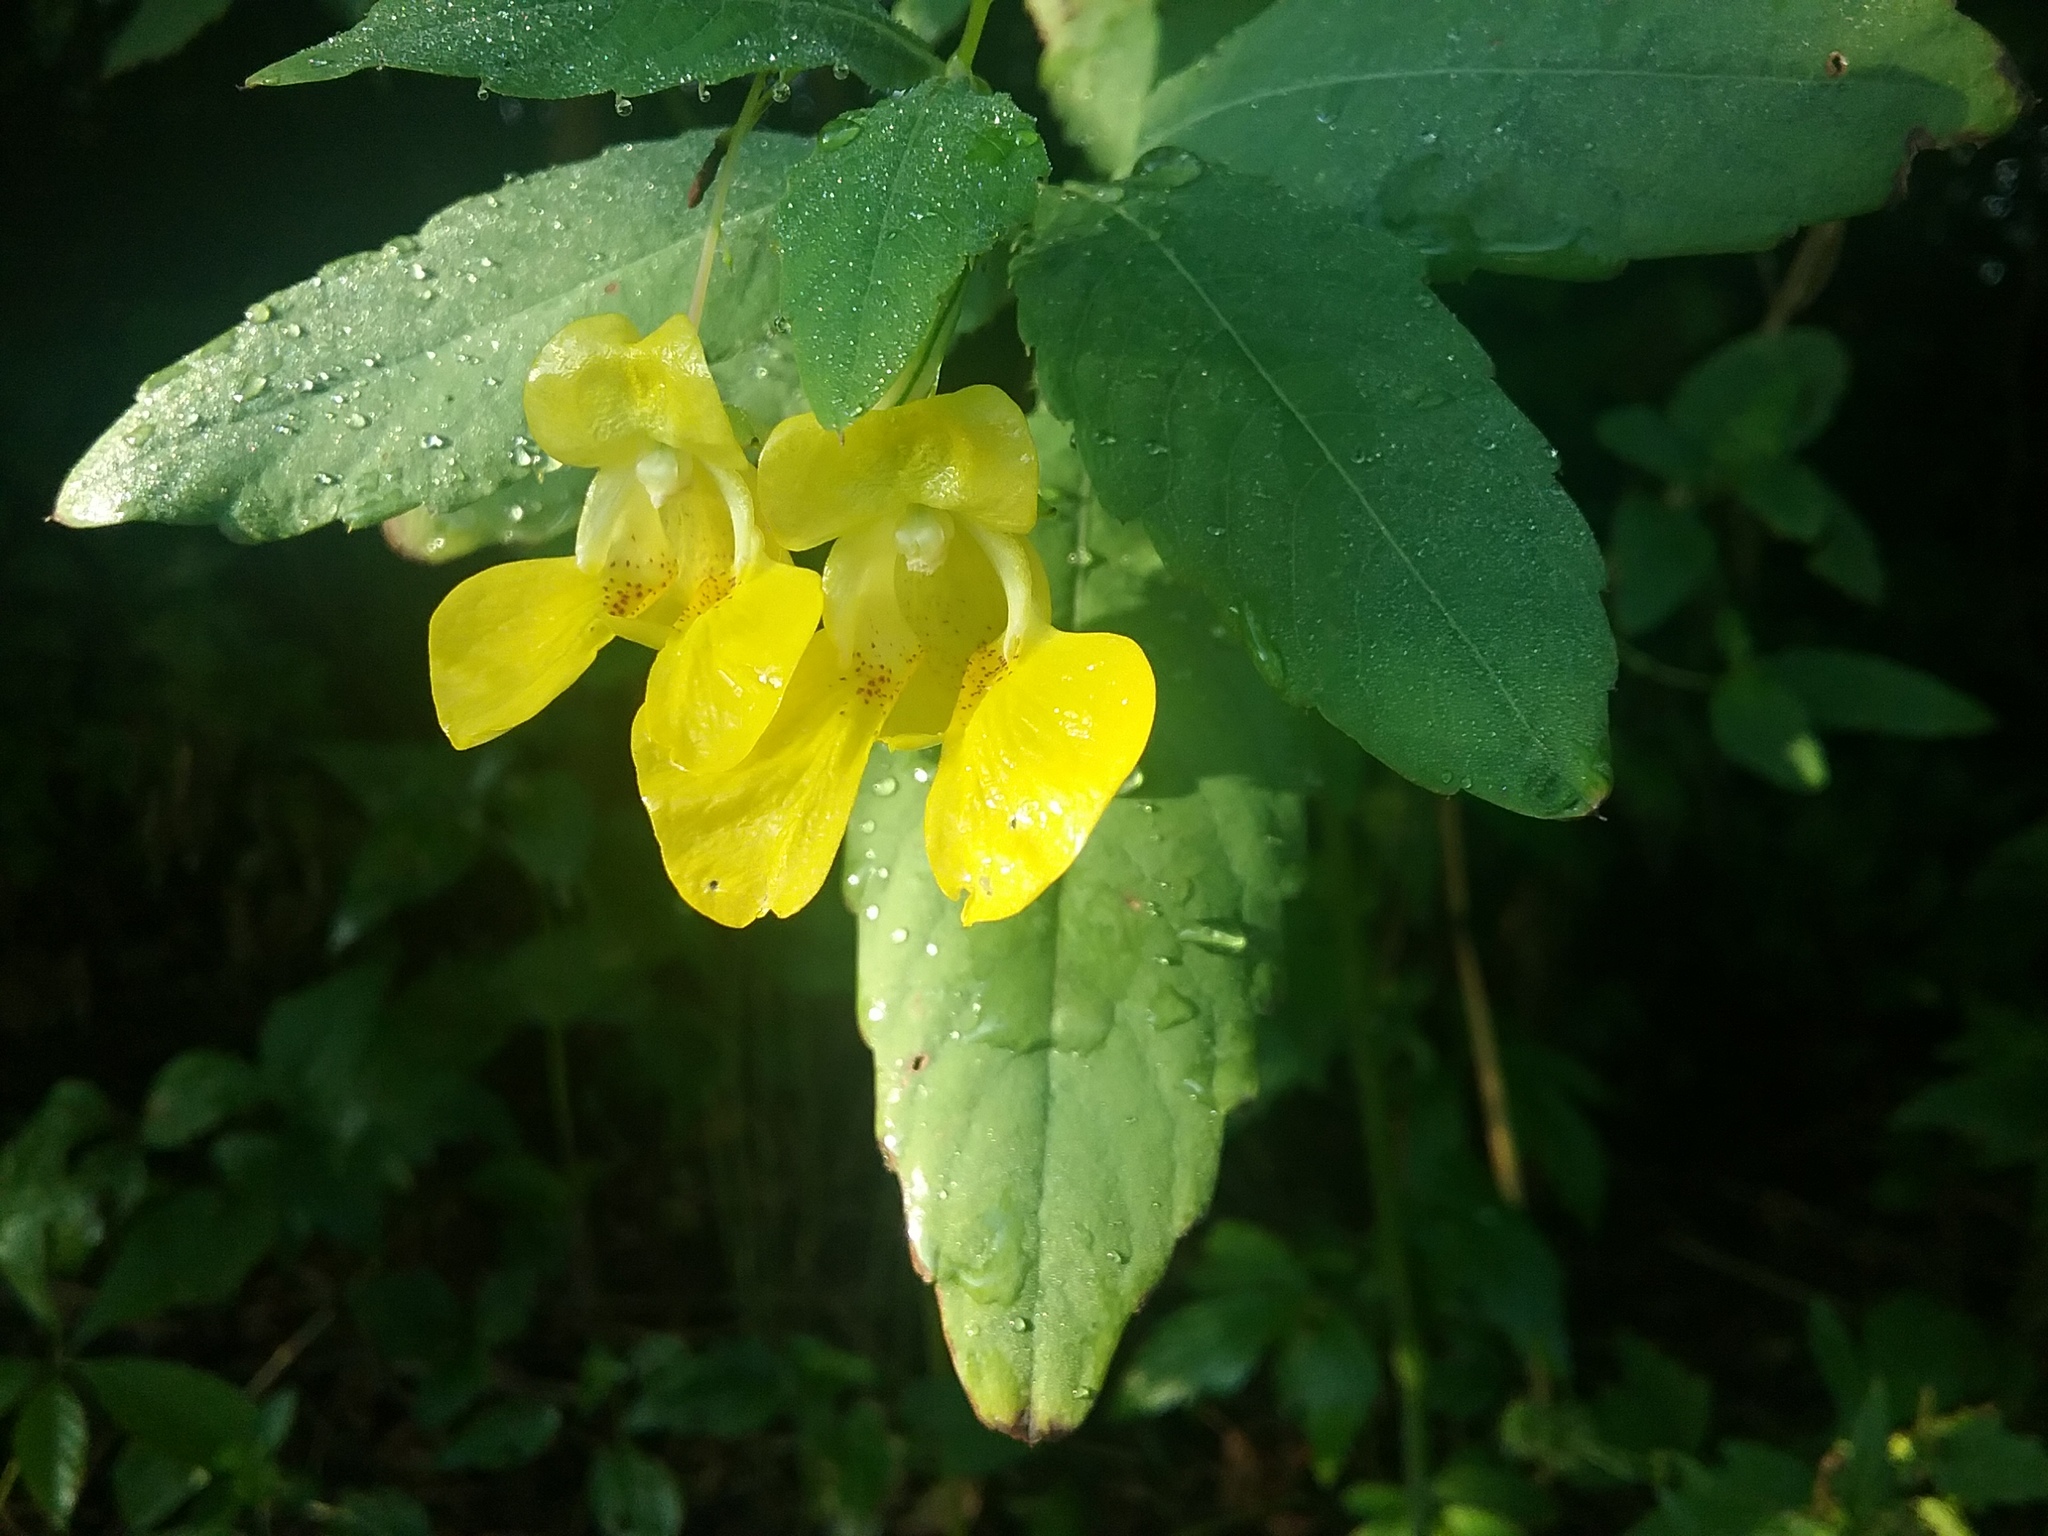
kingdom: Plantae
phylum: Tracheophyta
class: Magnoliopsida
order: Ericales
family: Balsaminaceae
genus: Impatiens
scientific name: Impatiens pallida
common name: Pale snapweed
